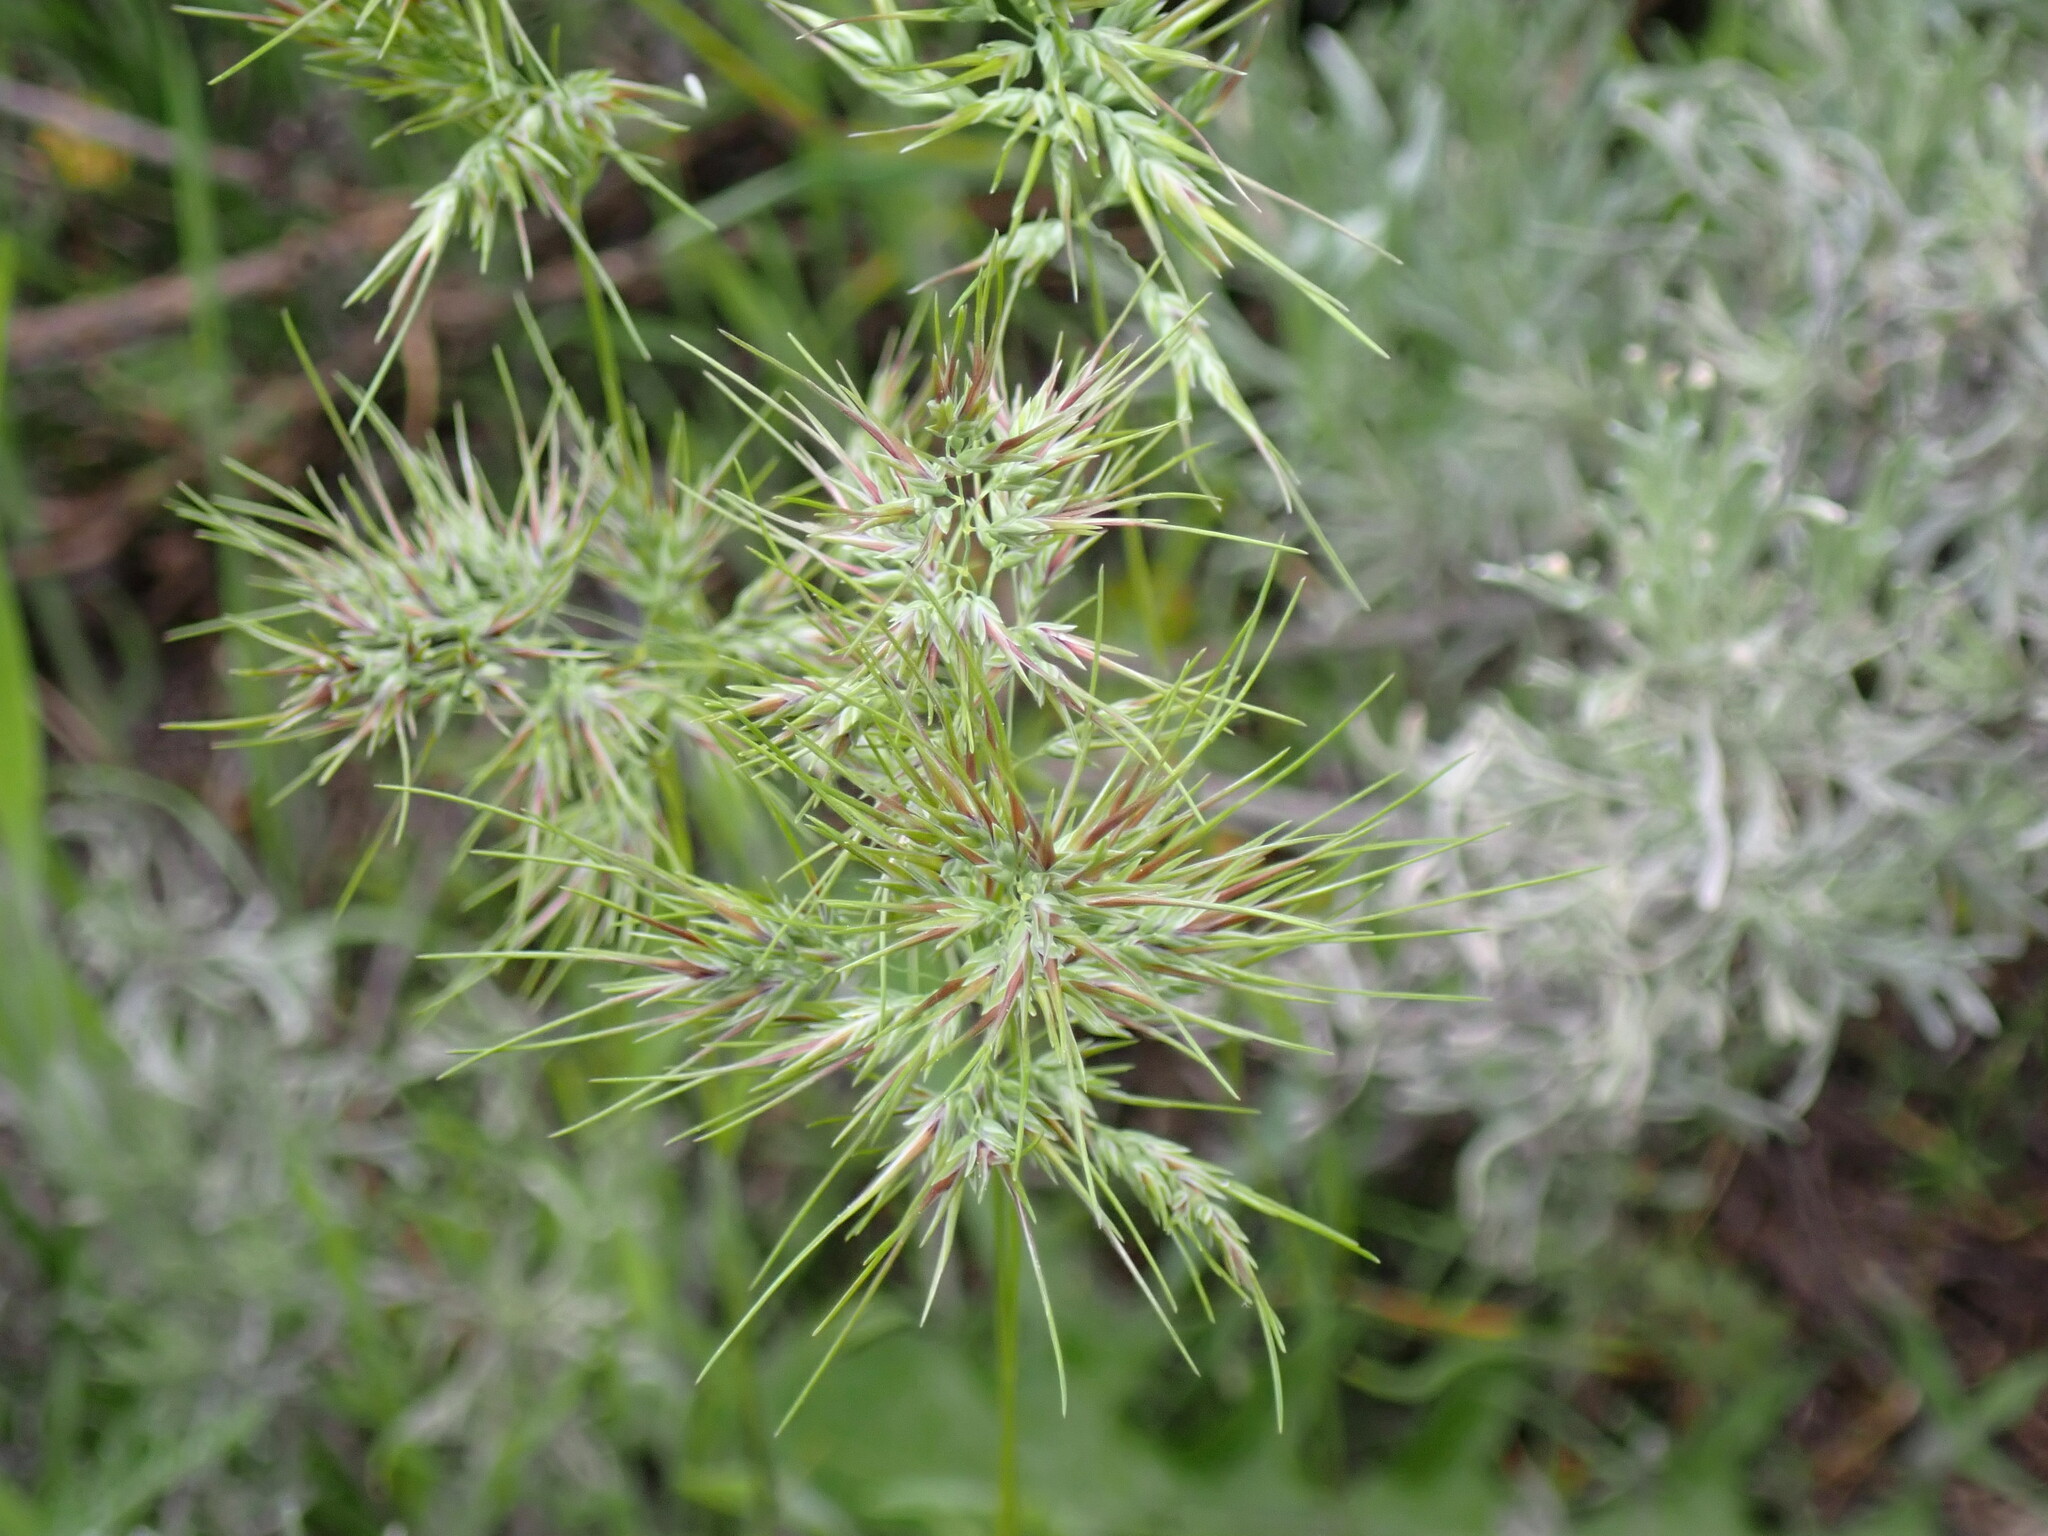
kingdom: Plantae
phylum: Tracheophyta
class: Liliopsida
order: Poales
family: Poaceae
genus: Poa
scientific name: Poa bulbosa
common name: Bulbous bluegrass
